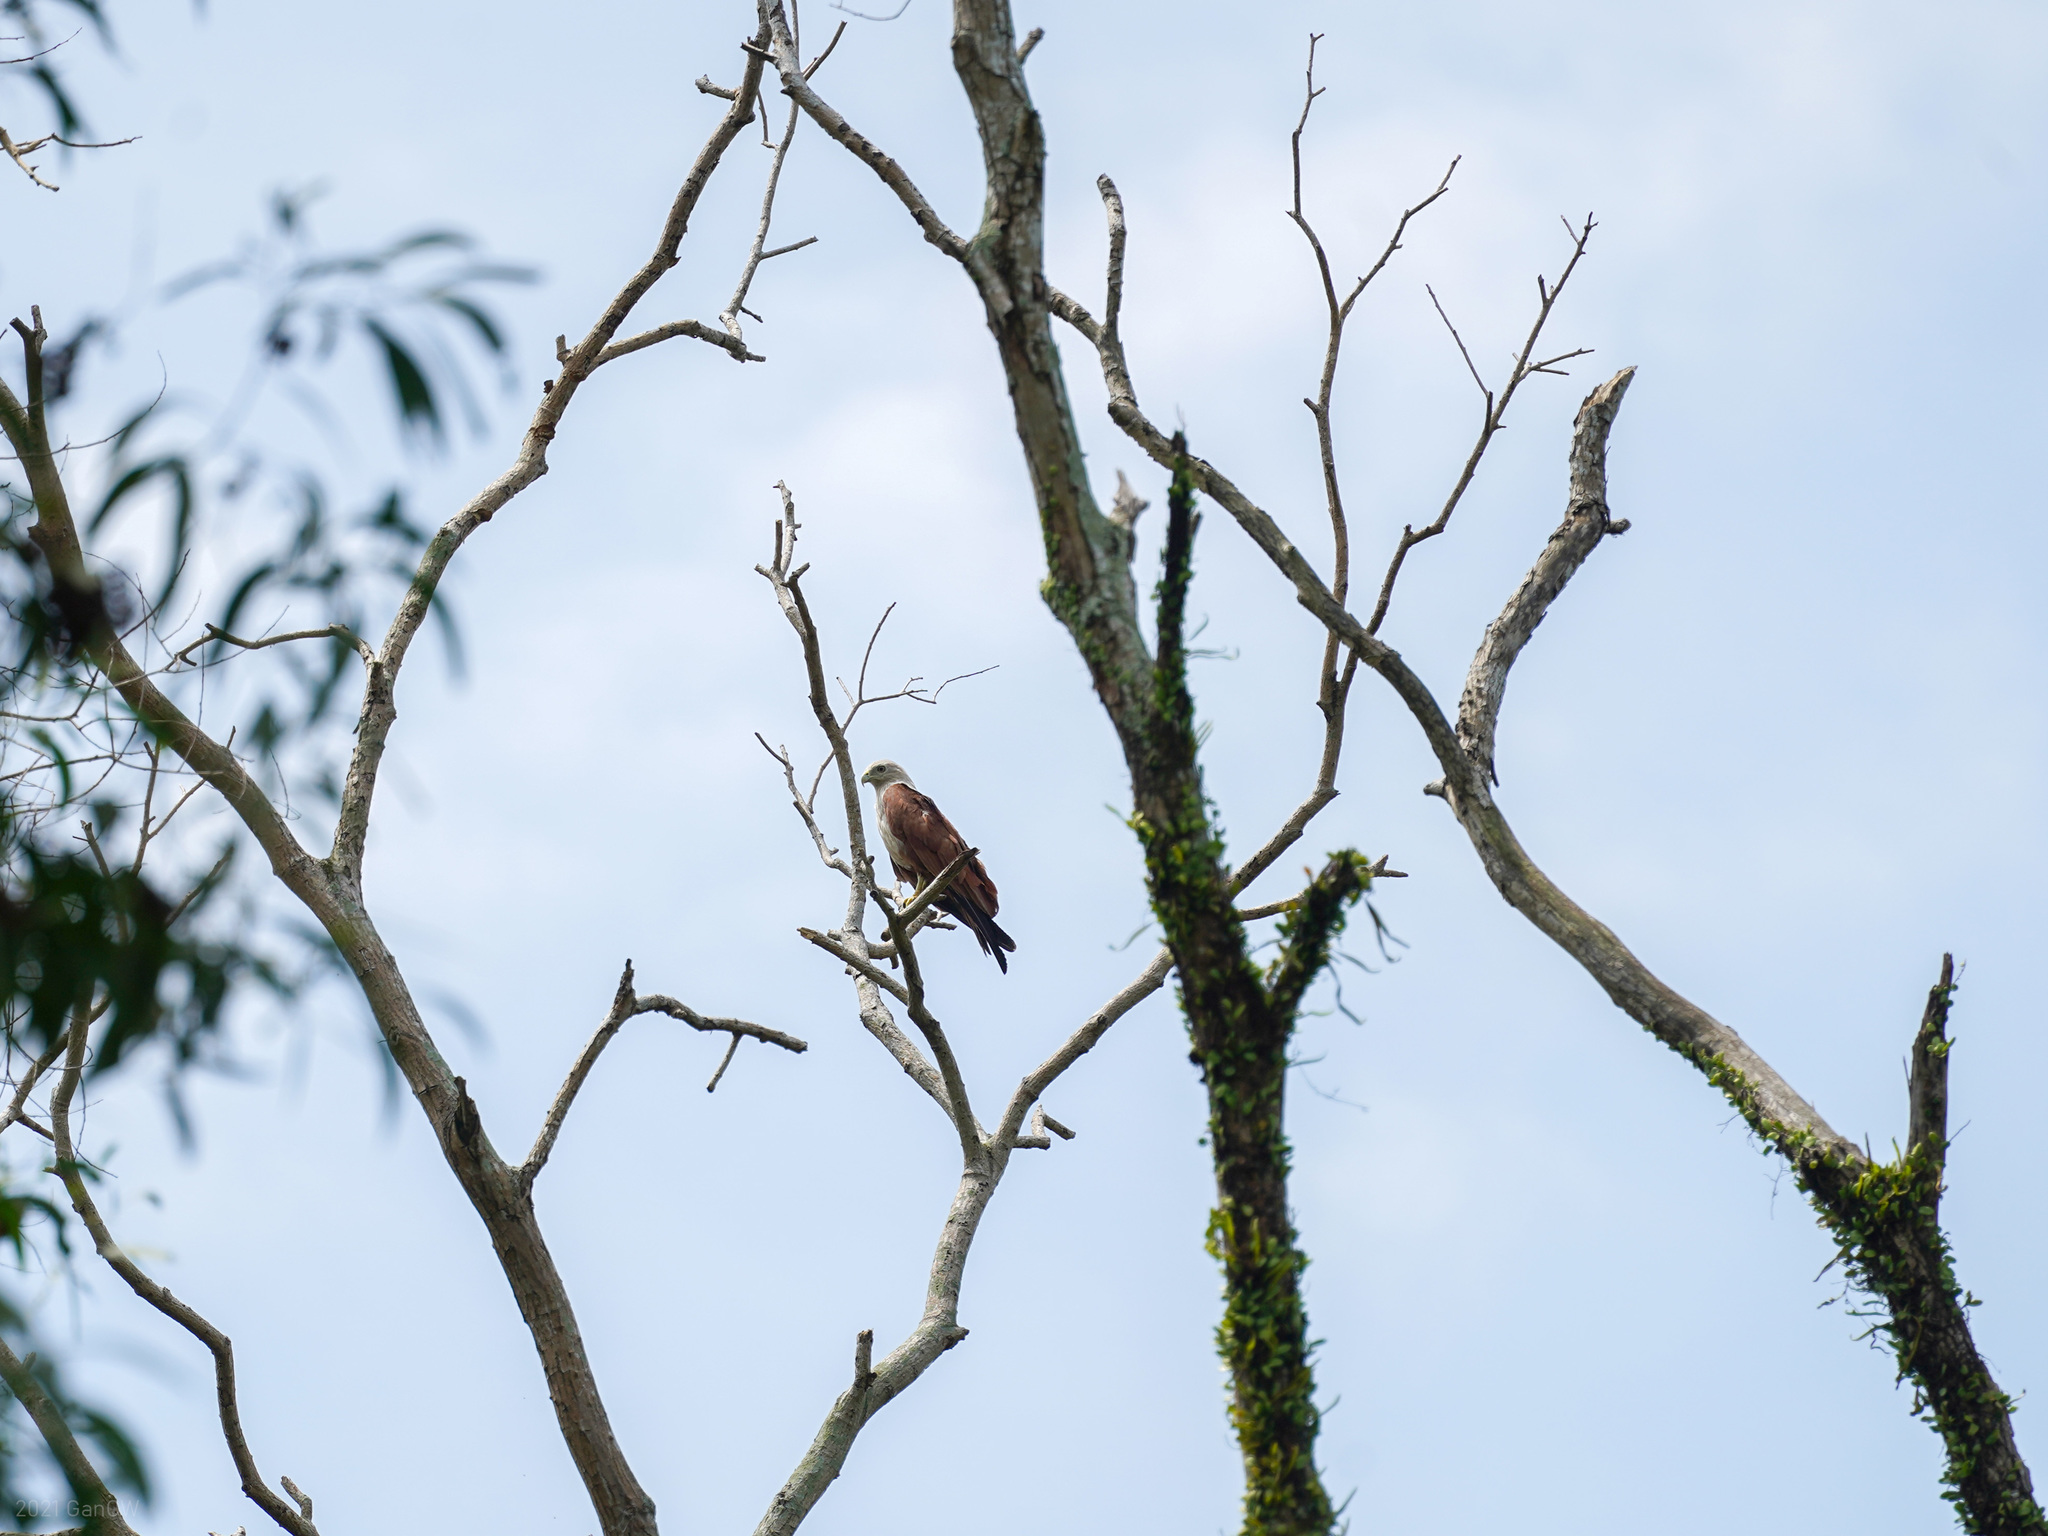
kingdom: Animalia
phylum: Chordata
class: Aves
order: Accipitriformes
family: Accipitridae
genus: Haliastur
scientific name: Haliastur indus
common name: Brahminy kite
